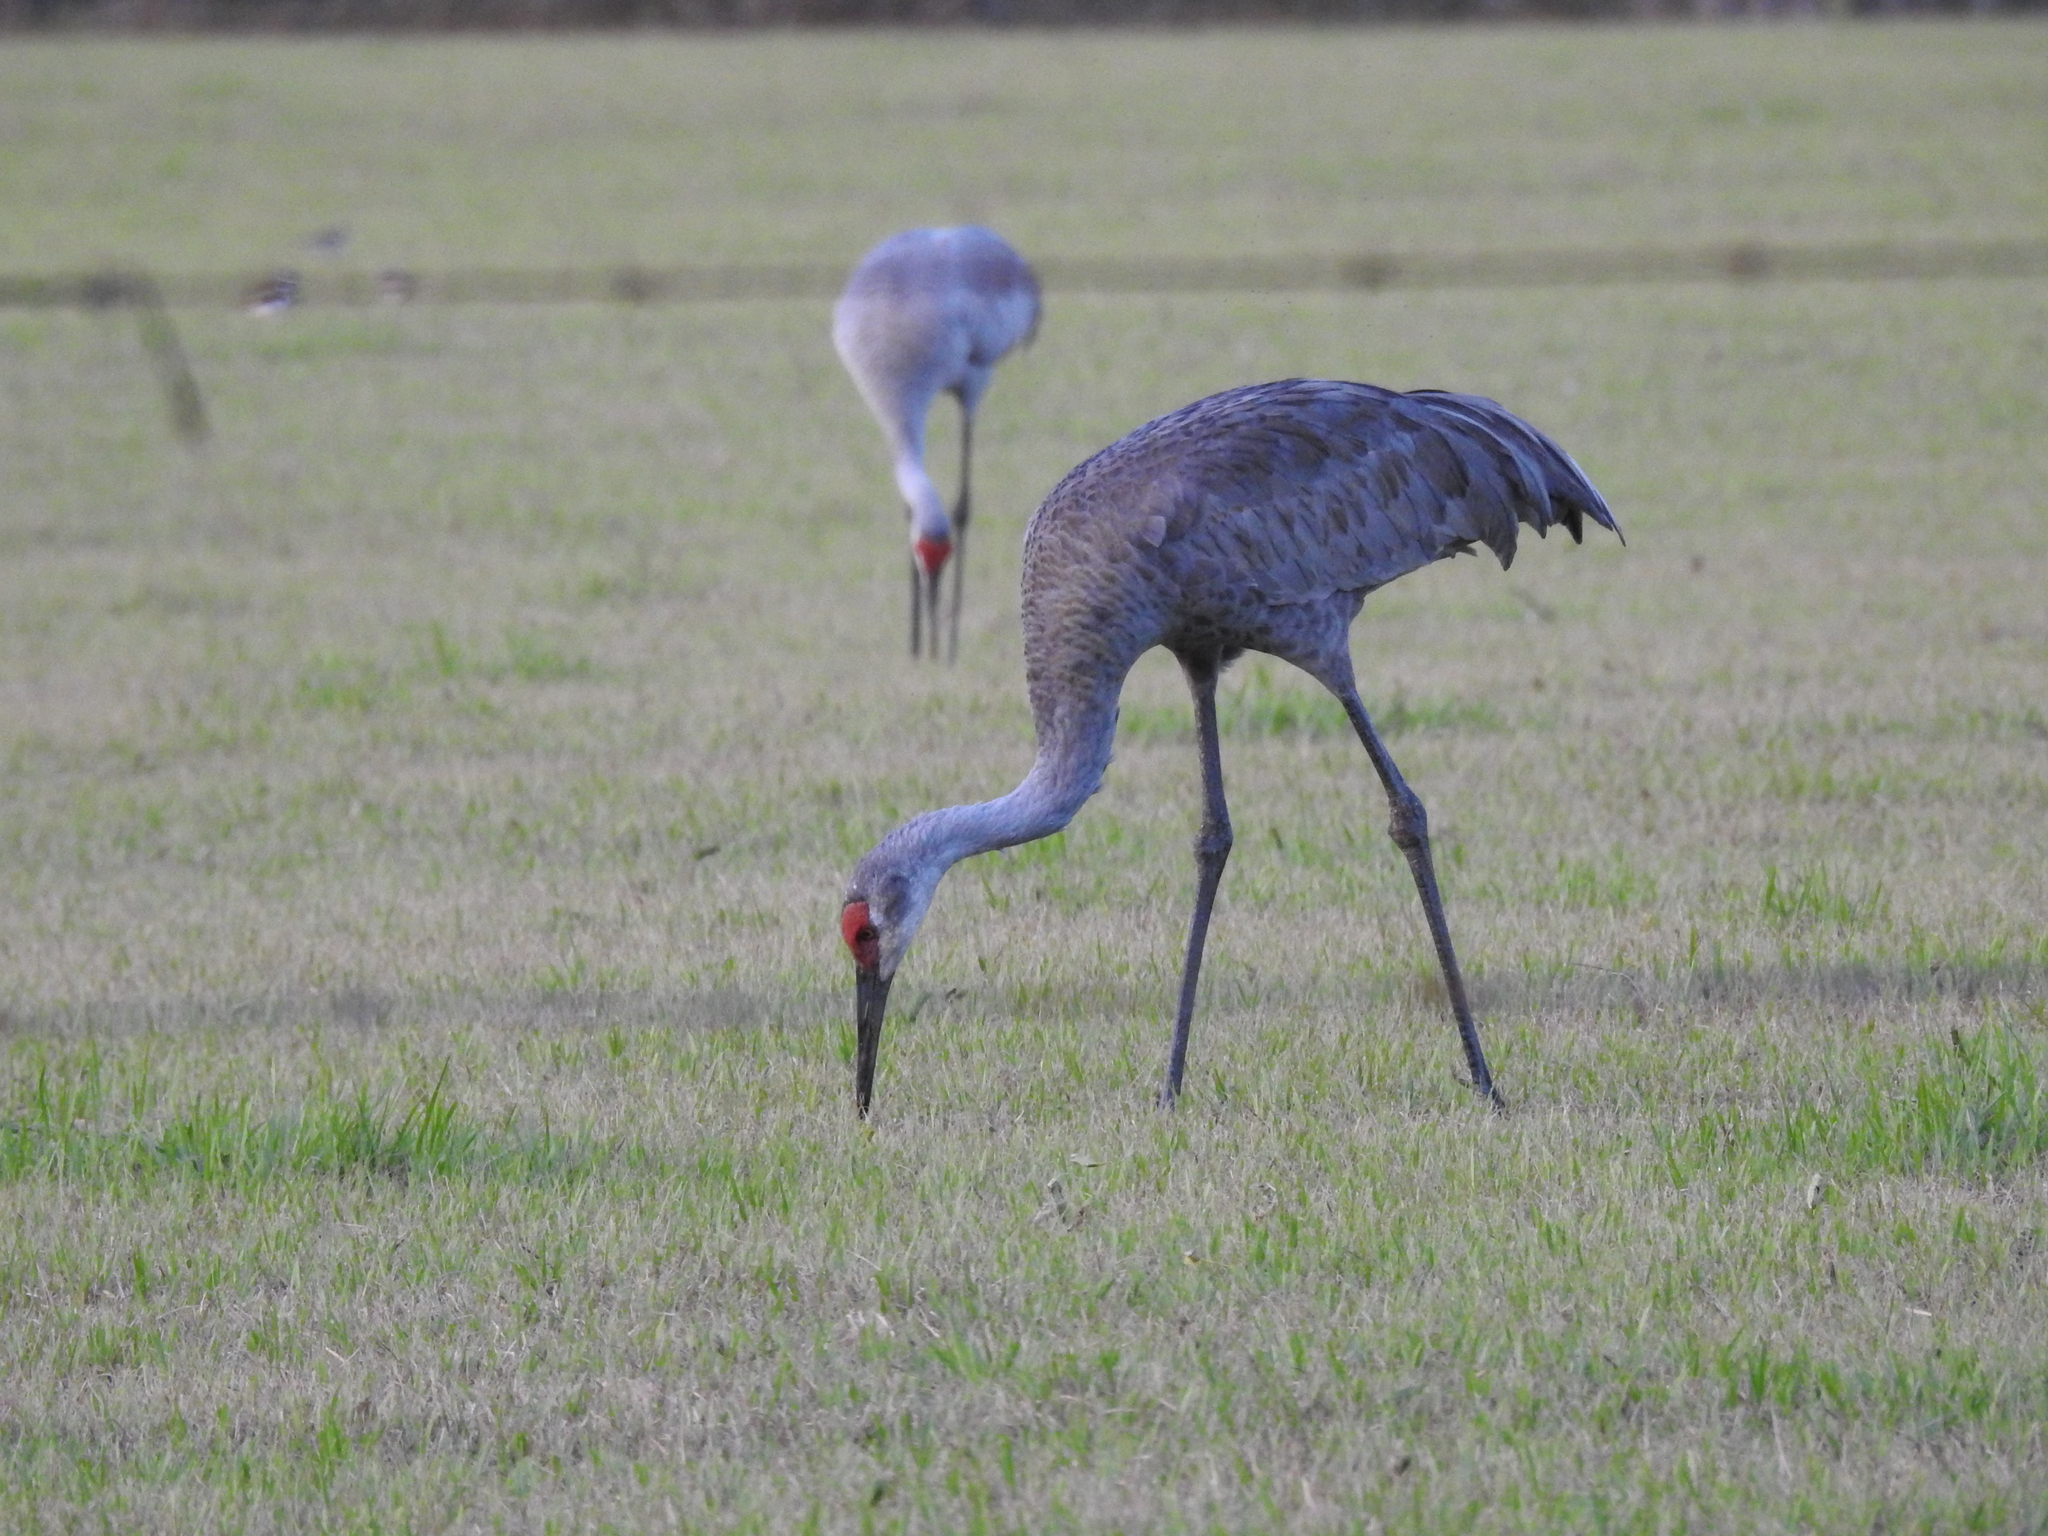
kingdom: Animalia
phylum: Chordata
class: Aves
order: Gruiformes
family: Gruidae
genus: Grus
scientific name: Grus canadensis
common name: Sandhill crane
